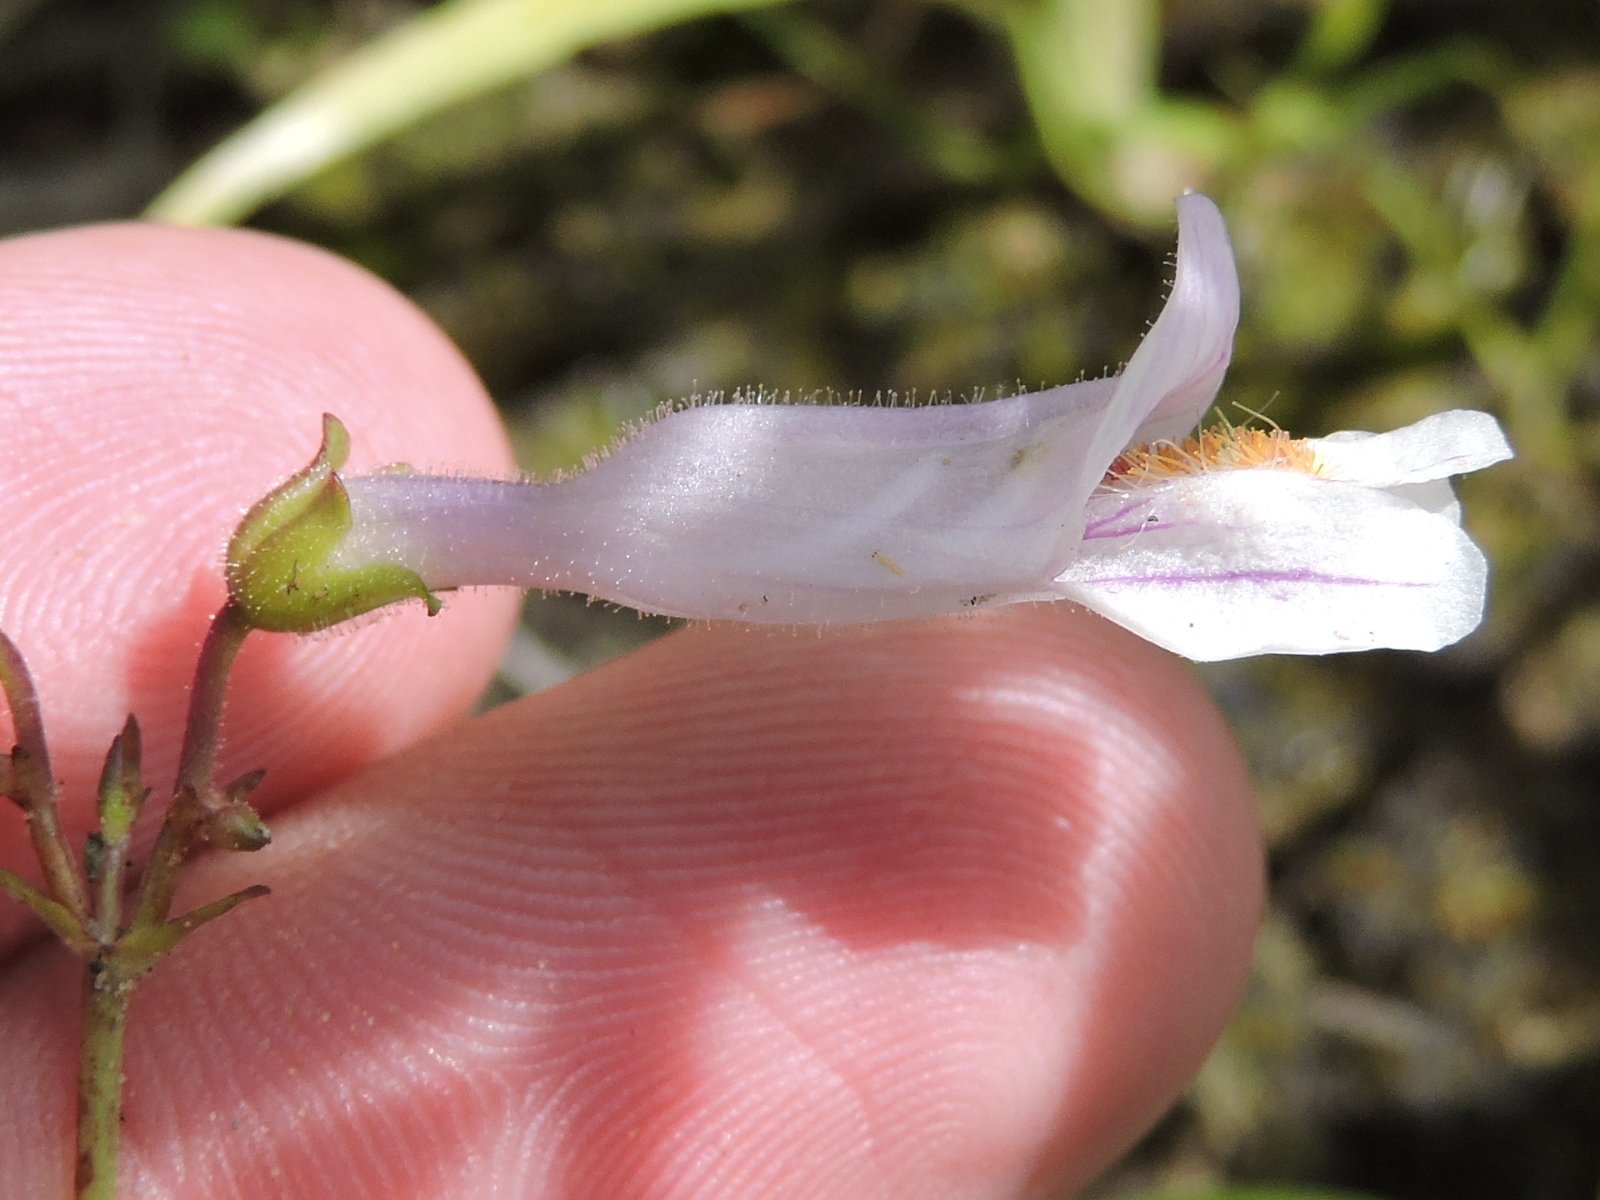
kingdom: Plantae
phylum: Tracheophyta
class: Magnoliopsida
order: Lamiales
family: Plantaginaceae
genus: Penstemon
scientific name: Penstemon laxiflorus
